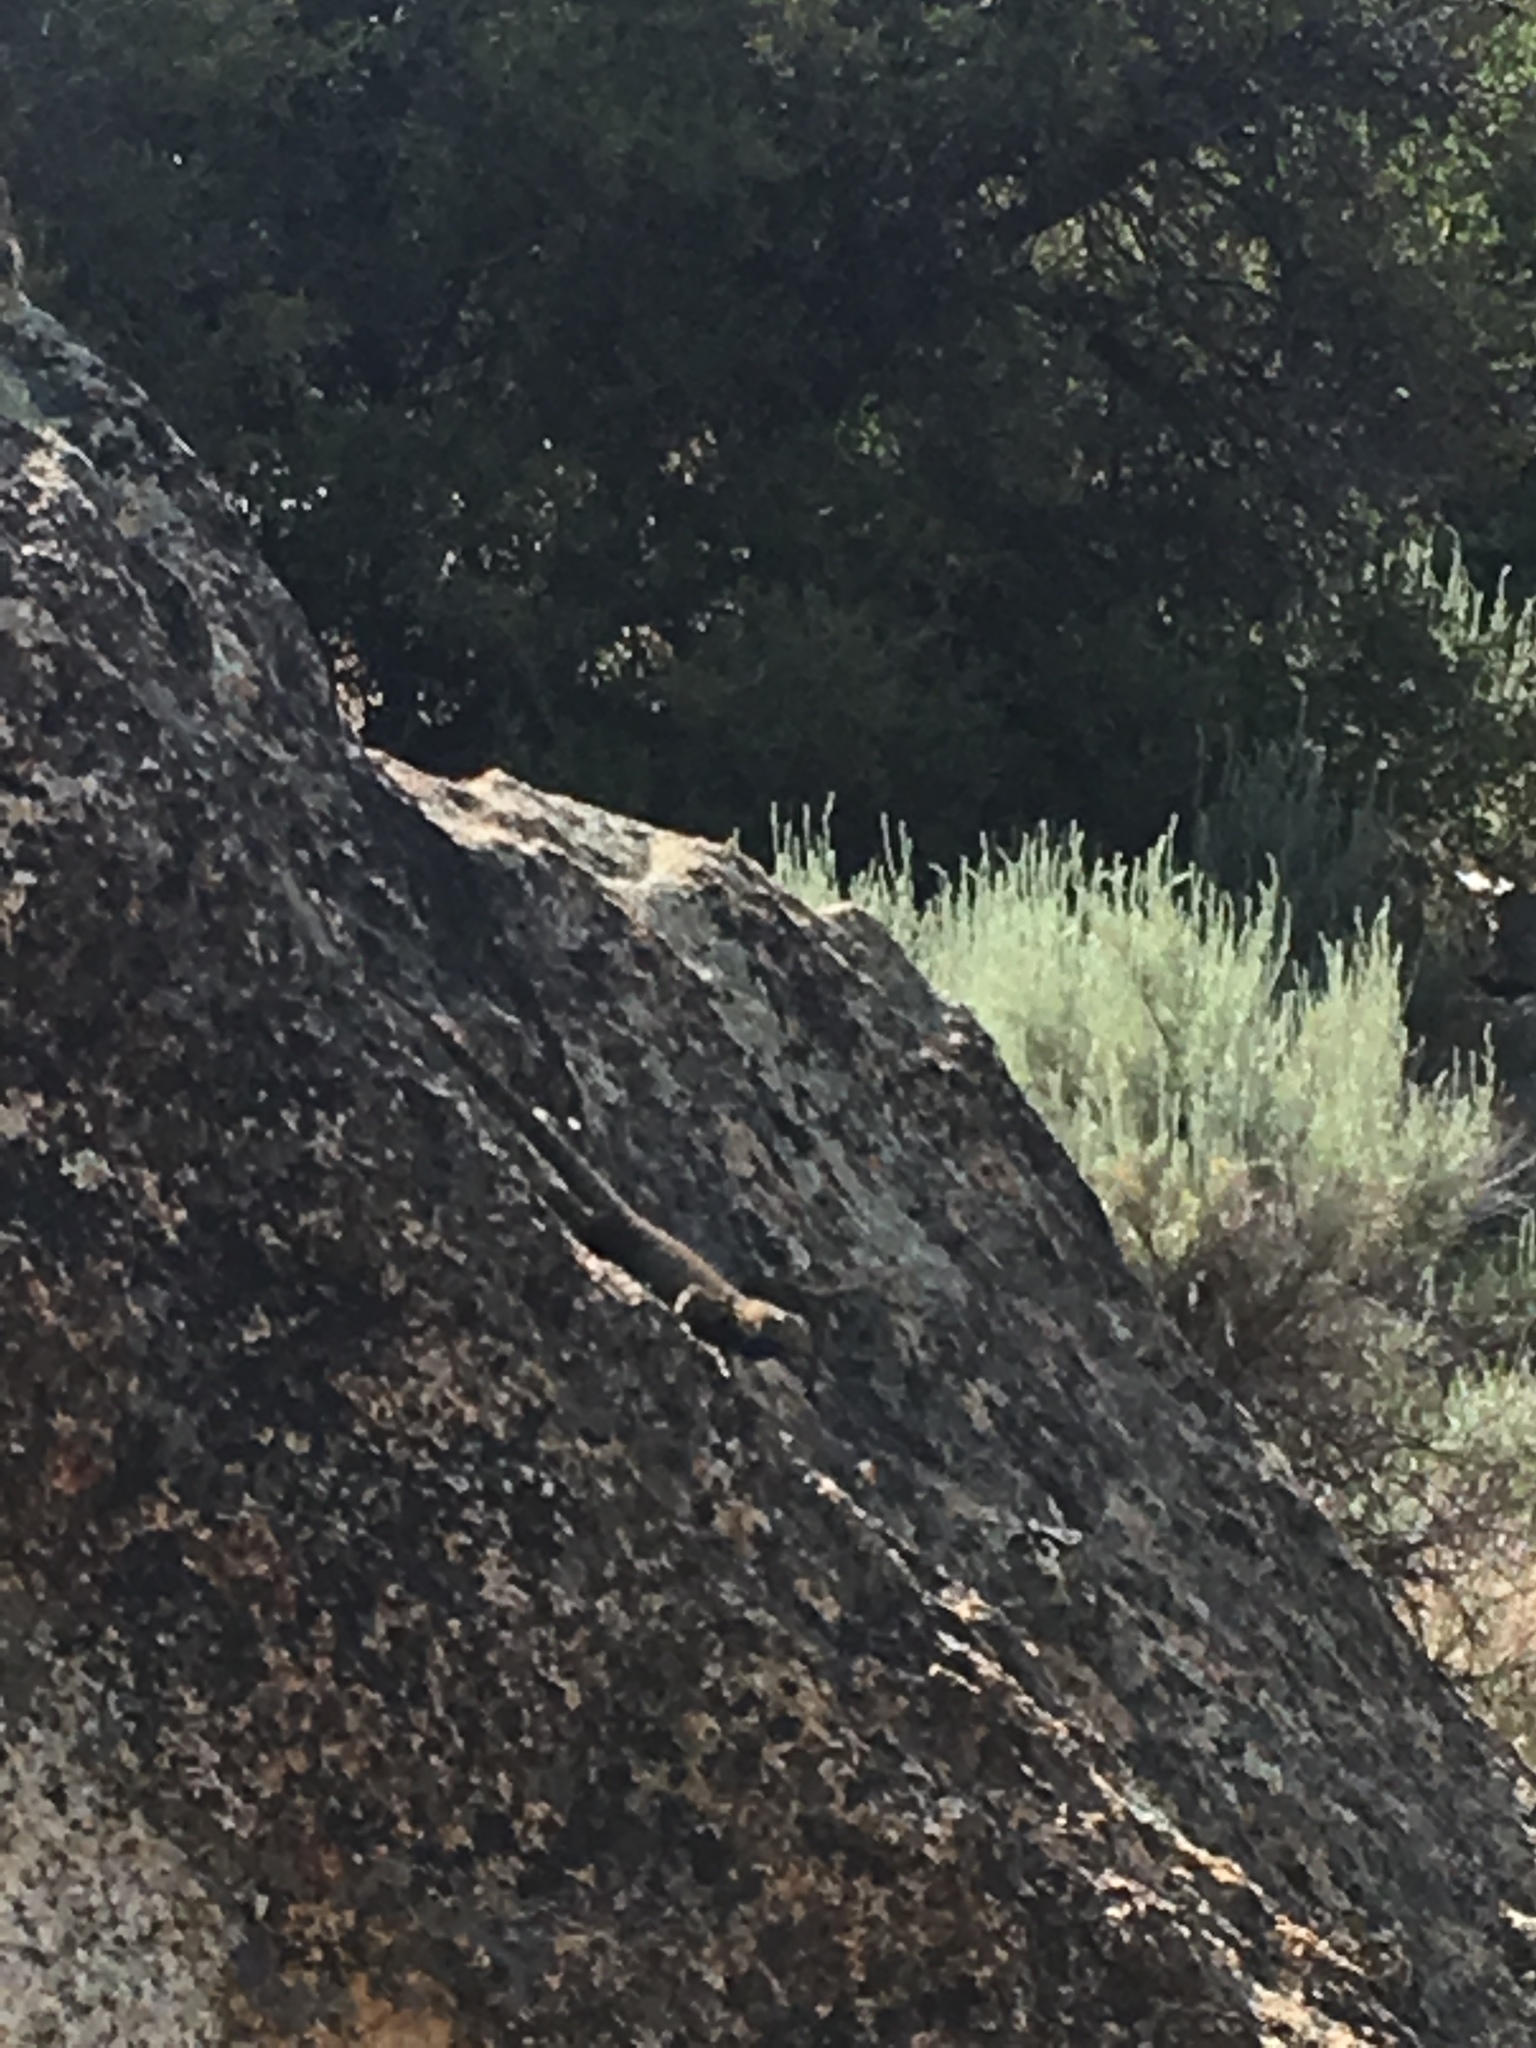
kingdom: Animalia
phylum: Chordata
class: Squamata
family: Phrynosomatidae
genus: Sceloporus
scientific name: Sceloporus orcutti
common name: Granite spiny lizard
